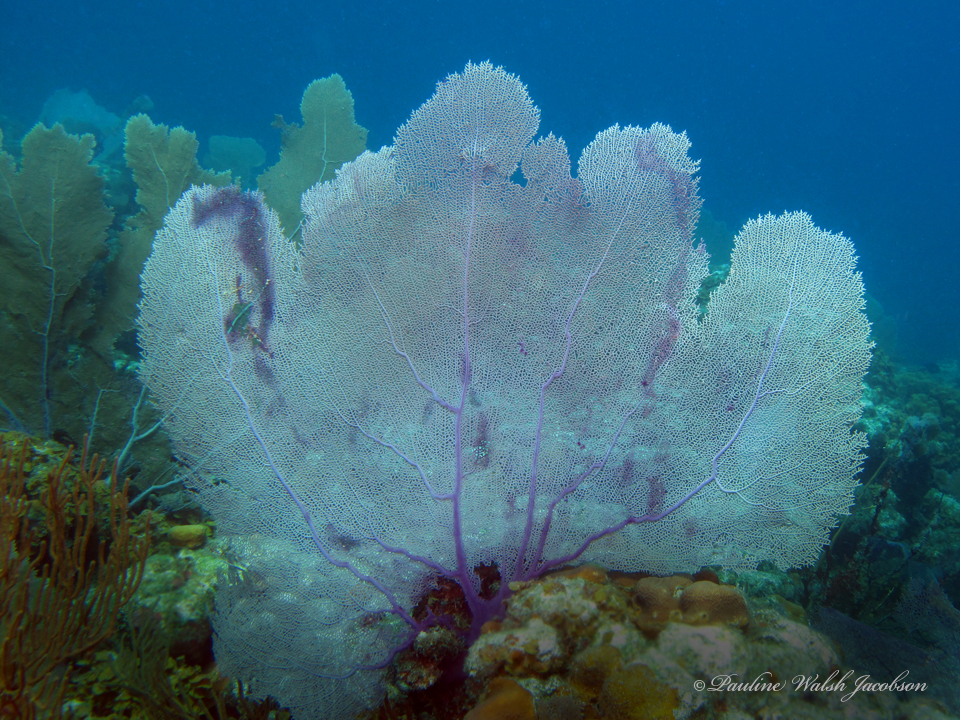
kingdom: Animalia
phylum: Cnidaria
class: Anthozoa
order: Malacalcyonacea
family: Gorgoniidae
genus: Gorgonia
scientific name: Gorgonia ventalina
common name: Common sea fan
